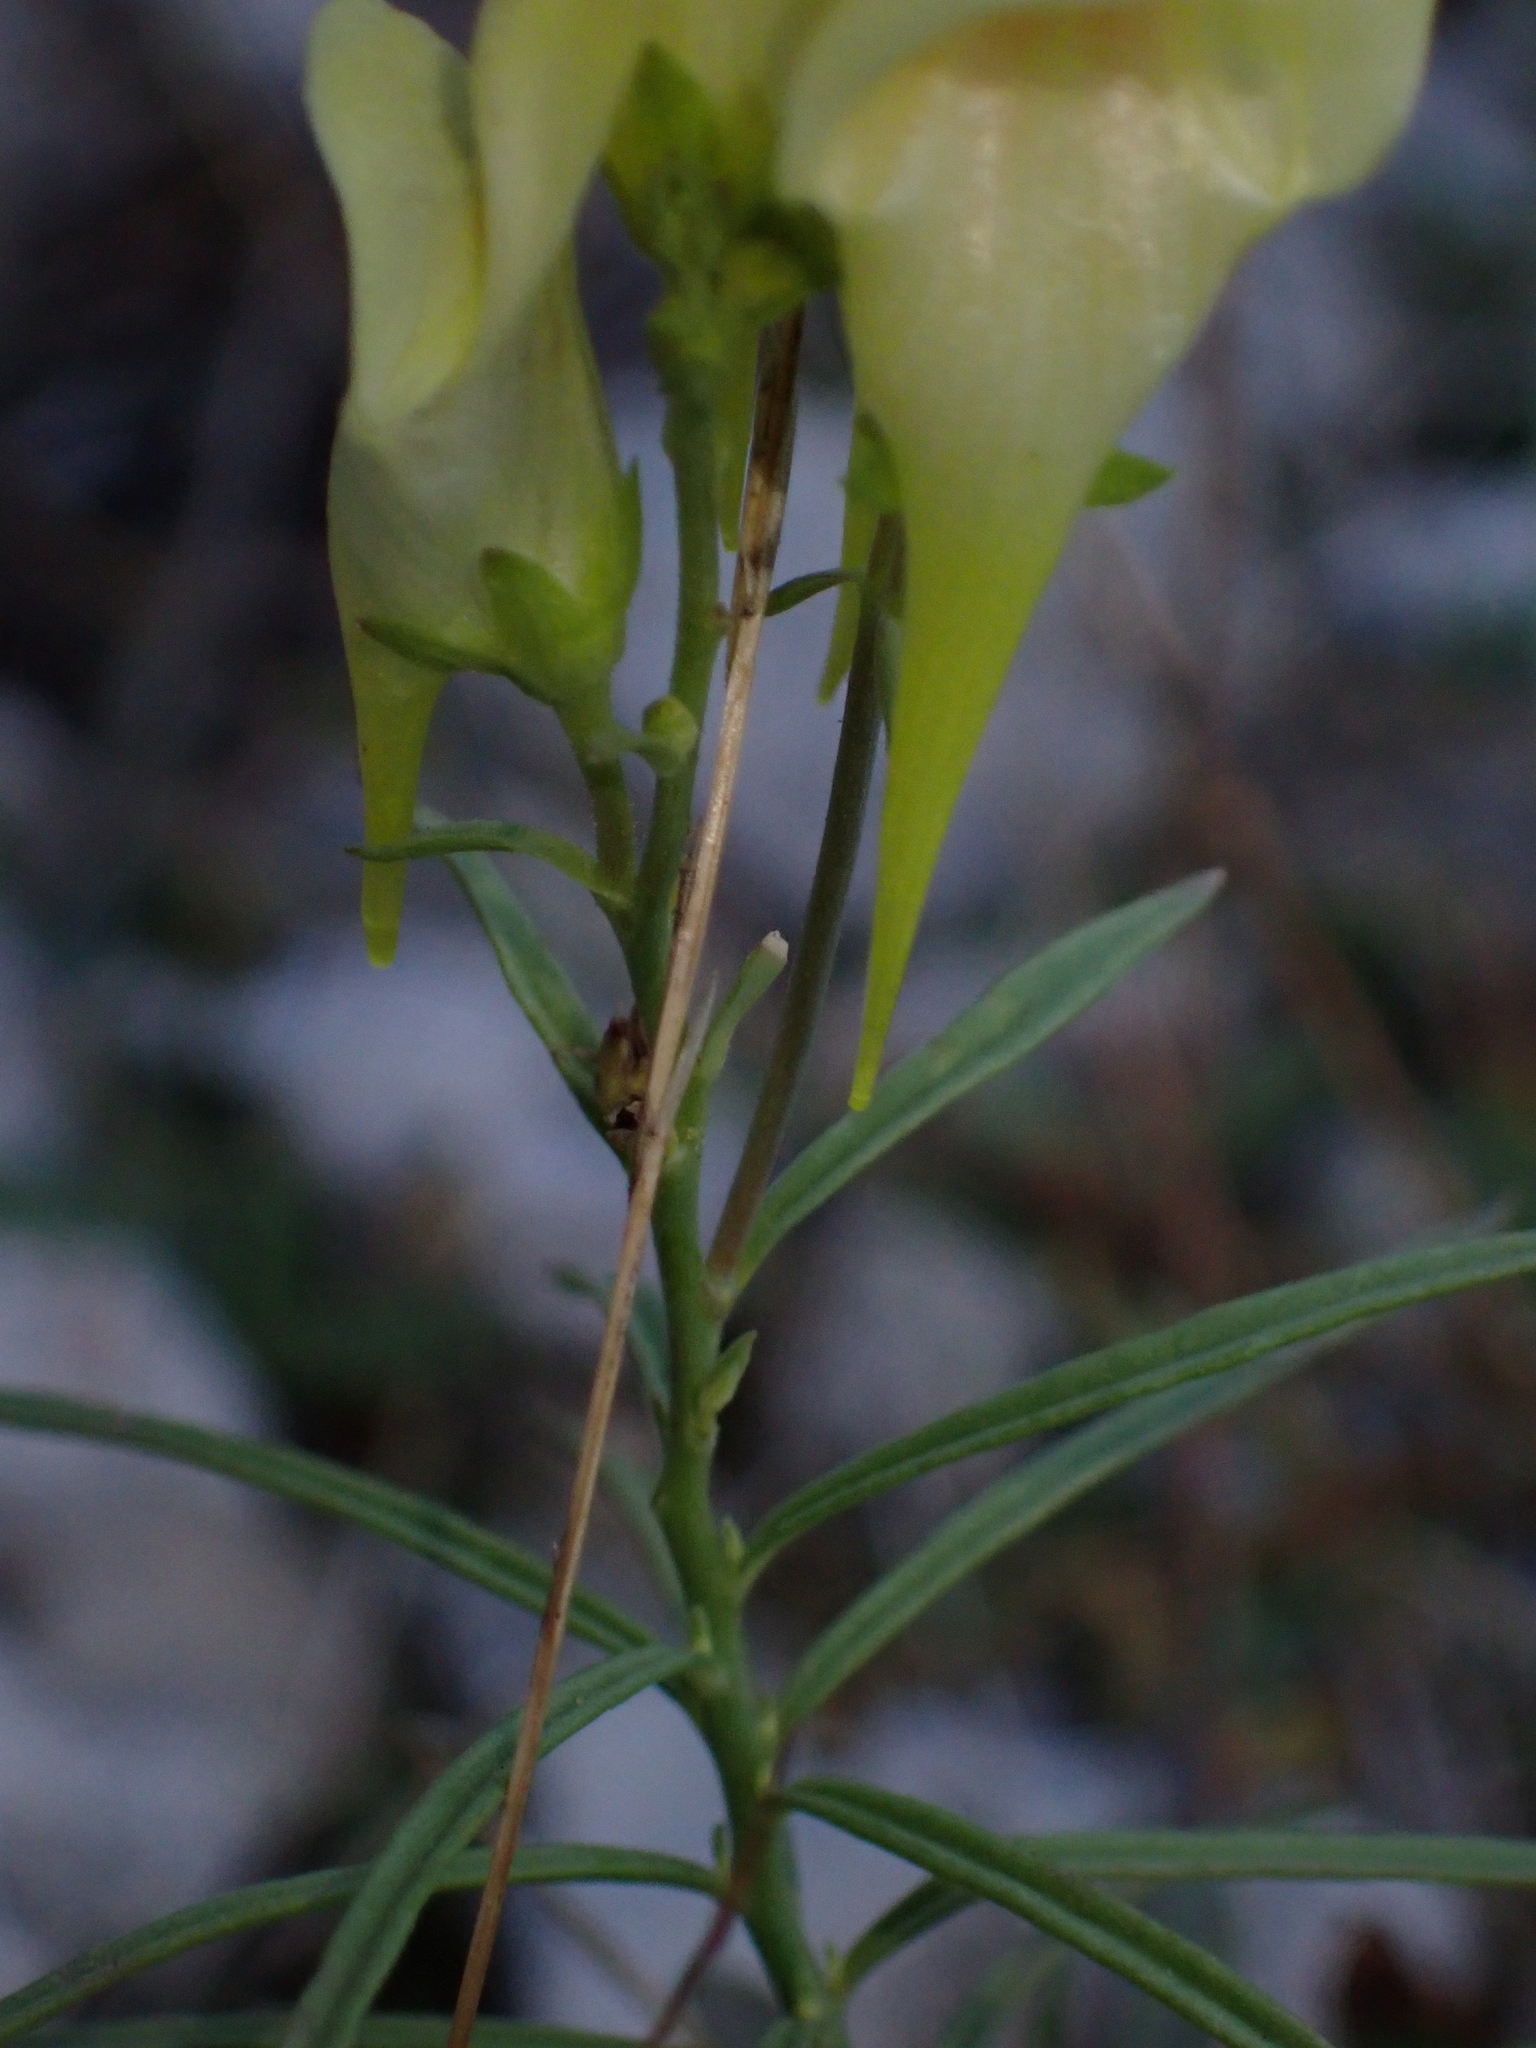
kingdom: Plantae
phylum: Tracheophyta
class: Magnoliopsida
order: Lamiales
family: Plantaginaceae
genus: Linaria
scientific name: Linaria vulgaris
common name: Butter and eggs
